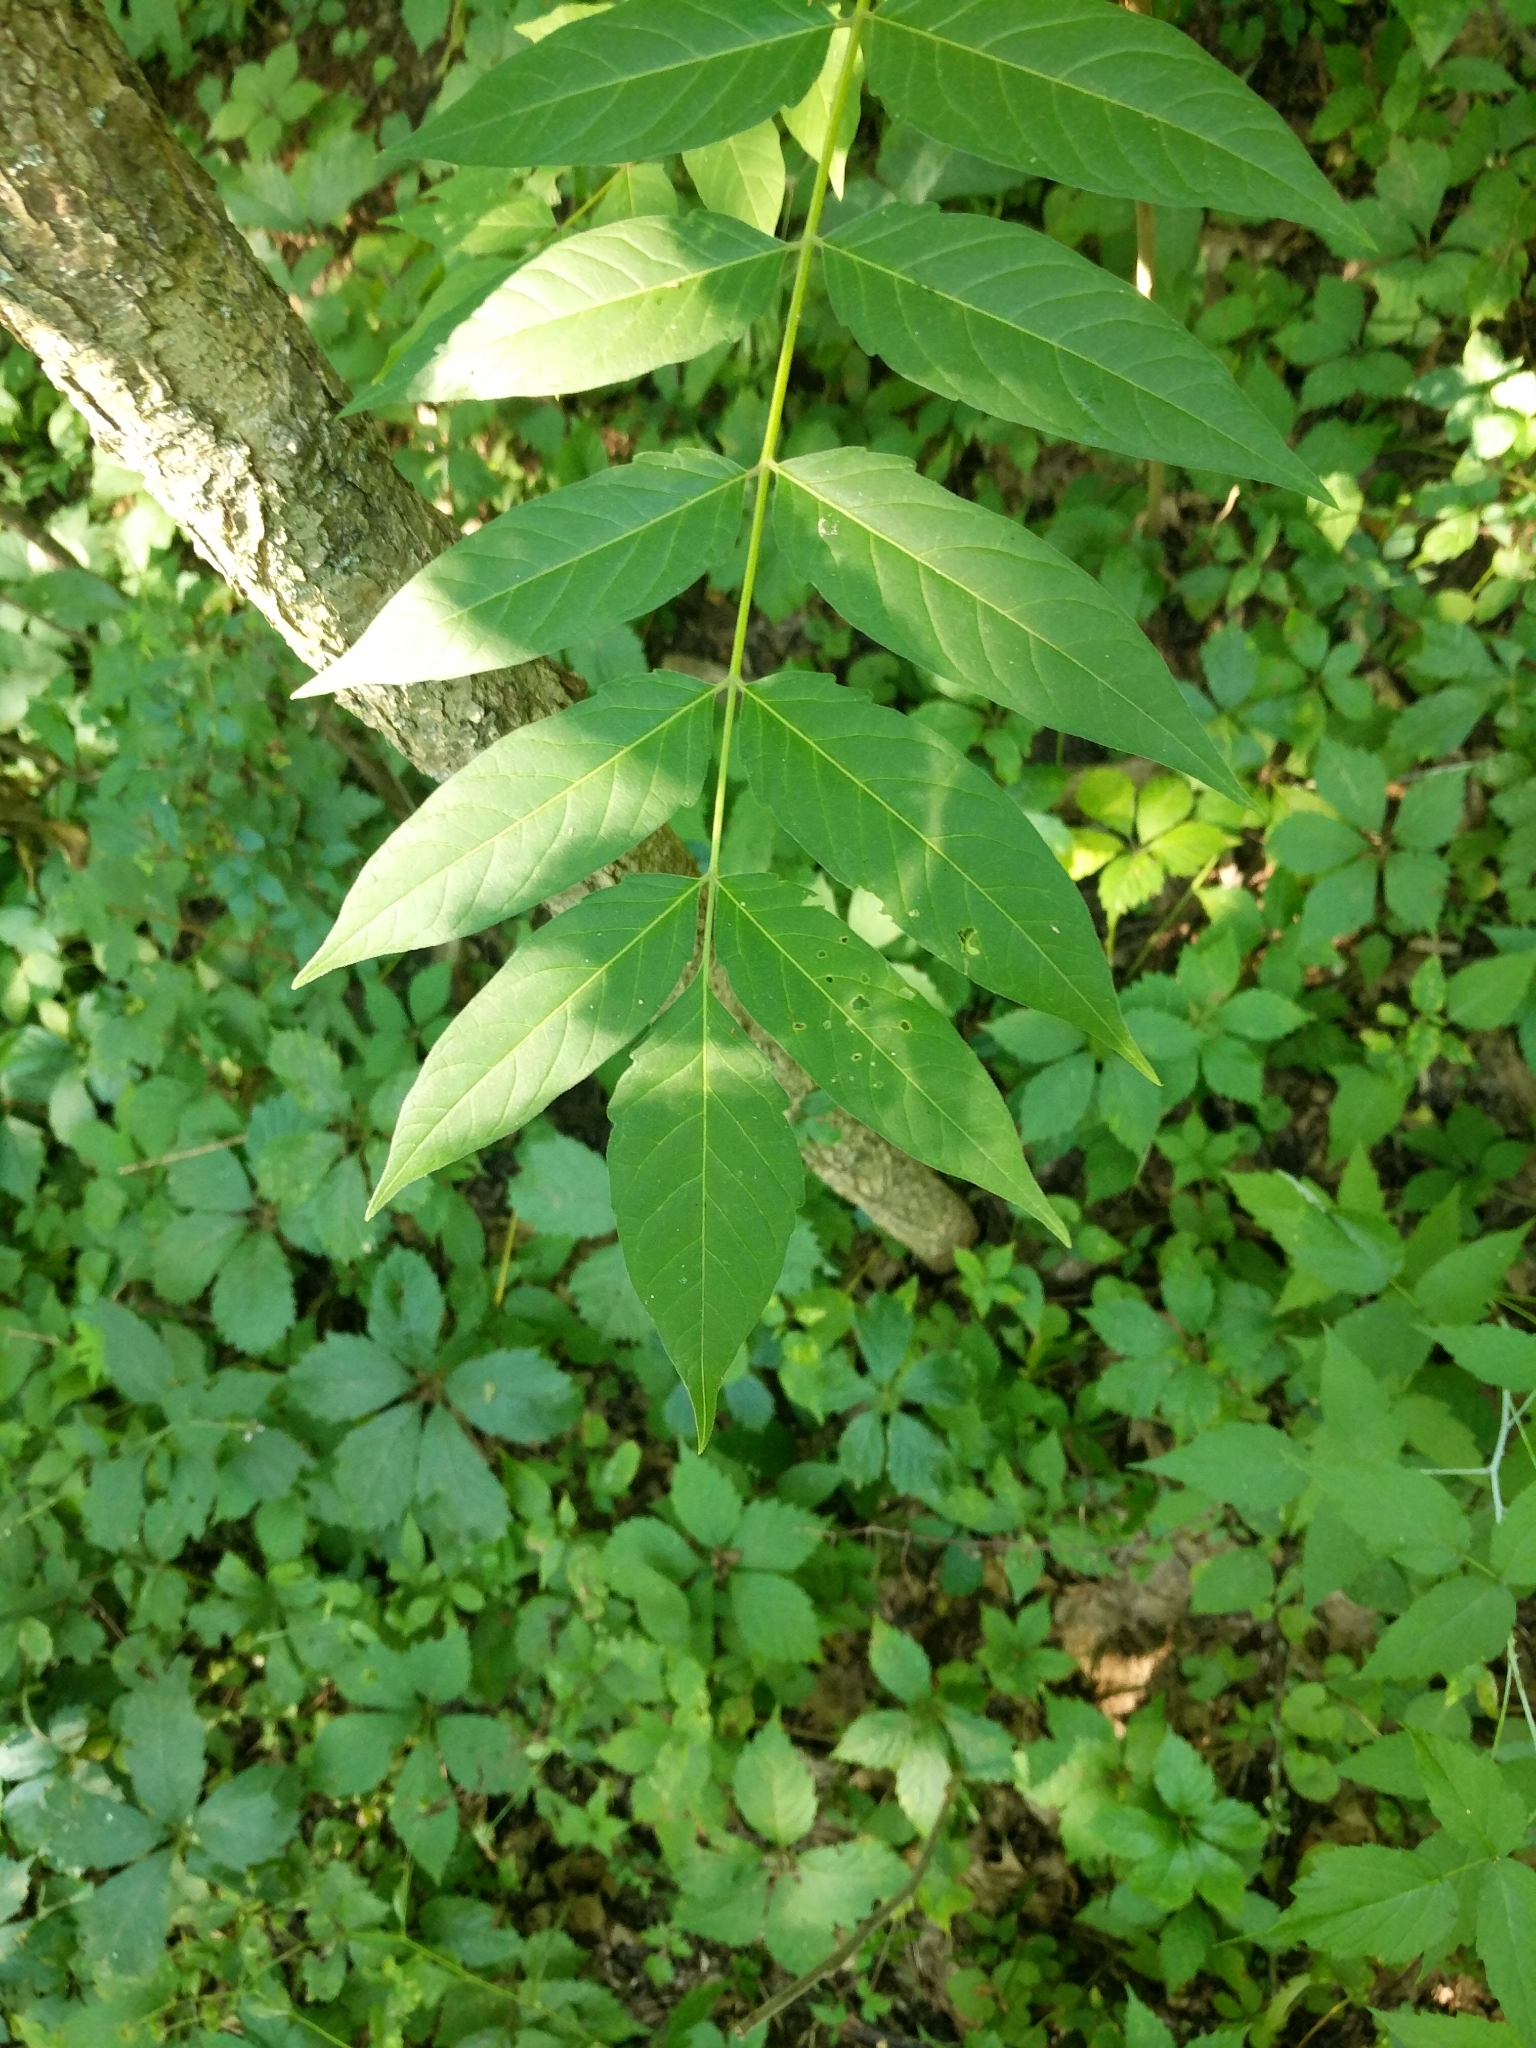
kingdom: Plantae
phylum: Tracheophyta
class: Magnoliopsida
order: Sapindales
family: Simaroubaceae
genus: Ailanthus
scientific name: Ailanthus altissima
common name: Tree-of-heaven
